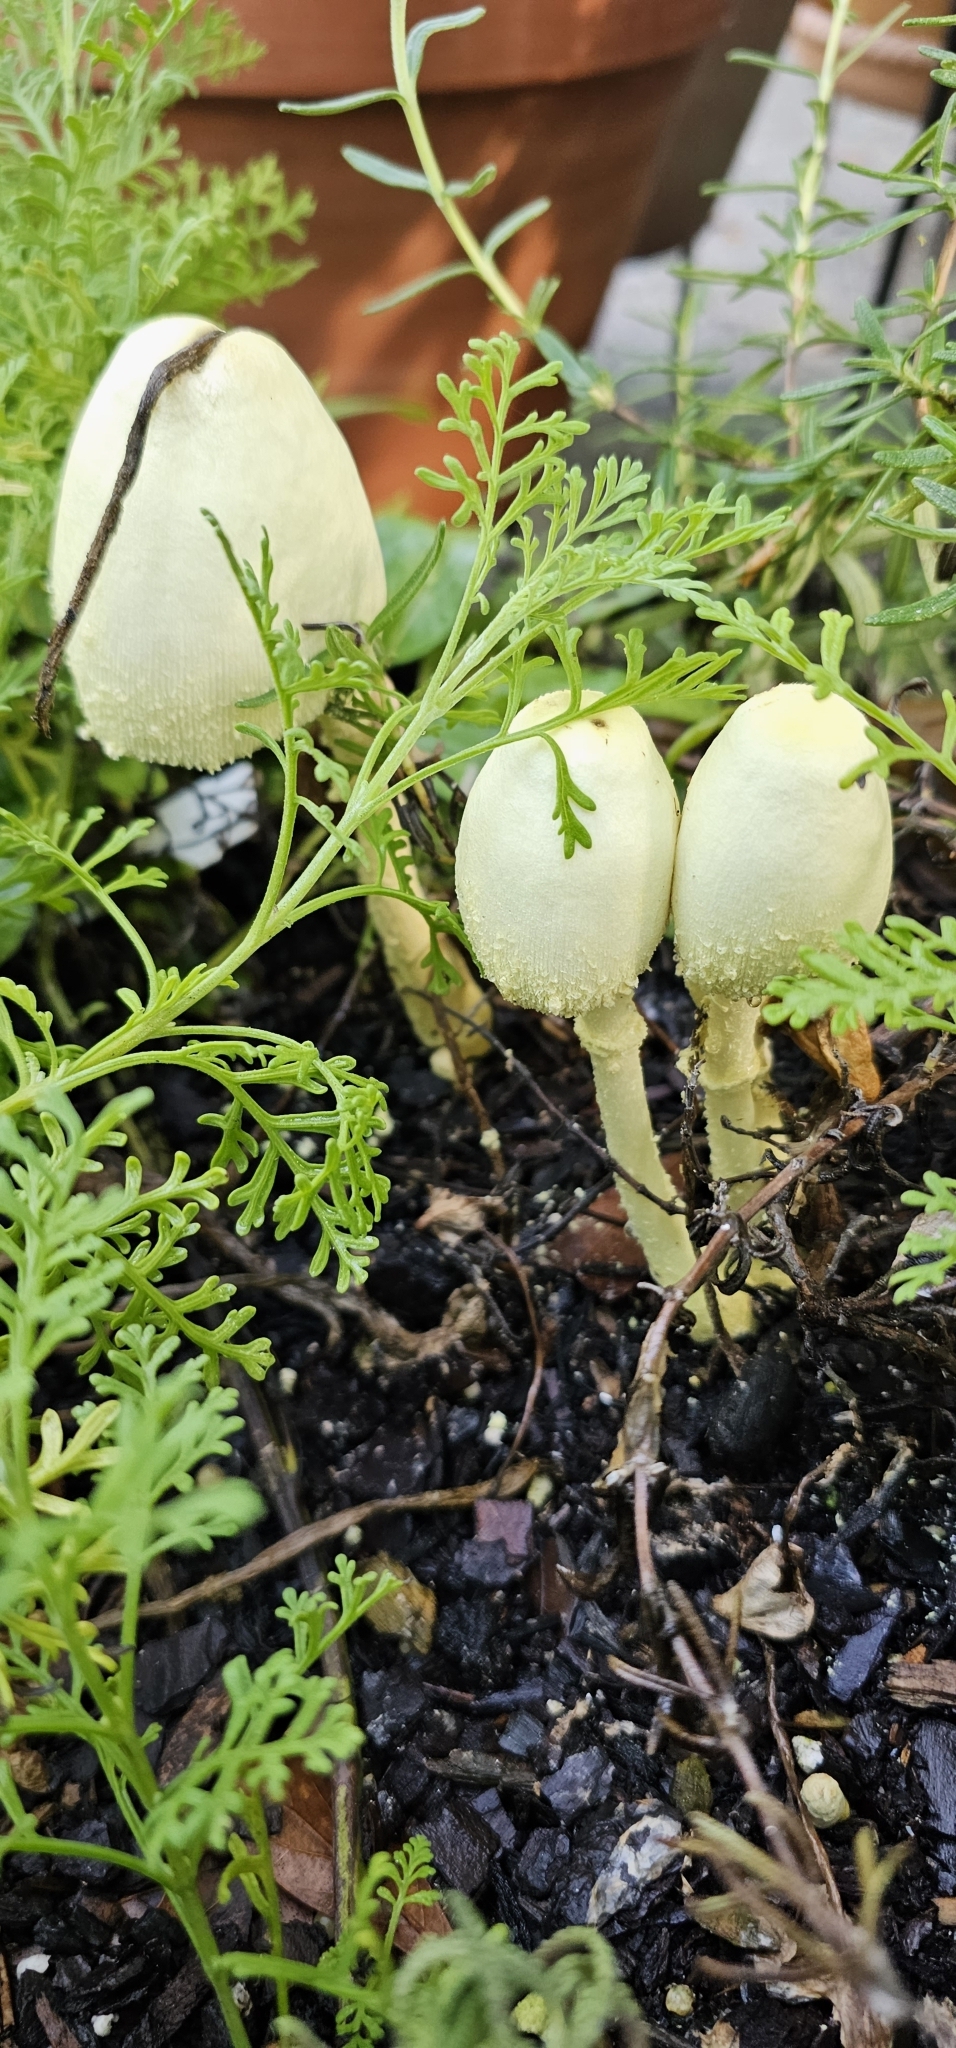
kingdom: Fungi
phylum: Basidiomycota
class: Agaricomycetes
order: Agaricales
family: Agaricaceae
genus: Leucocoprinus
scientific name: Leucocoprinus birnbaumii
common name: Plantpot dapperling
